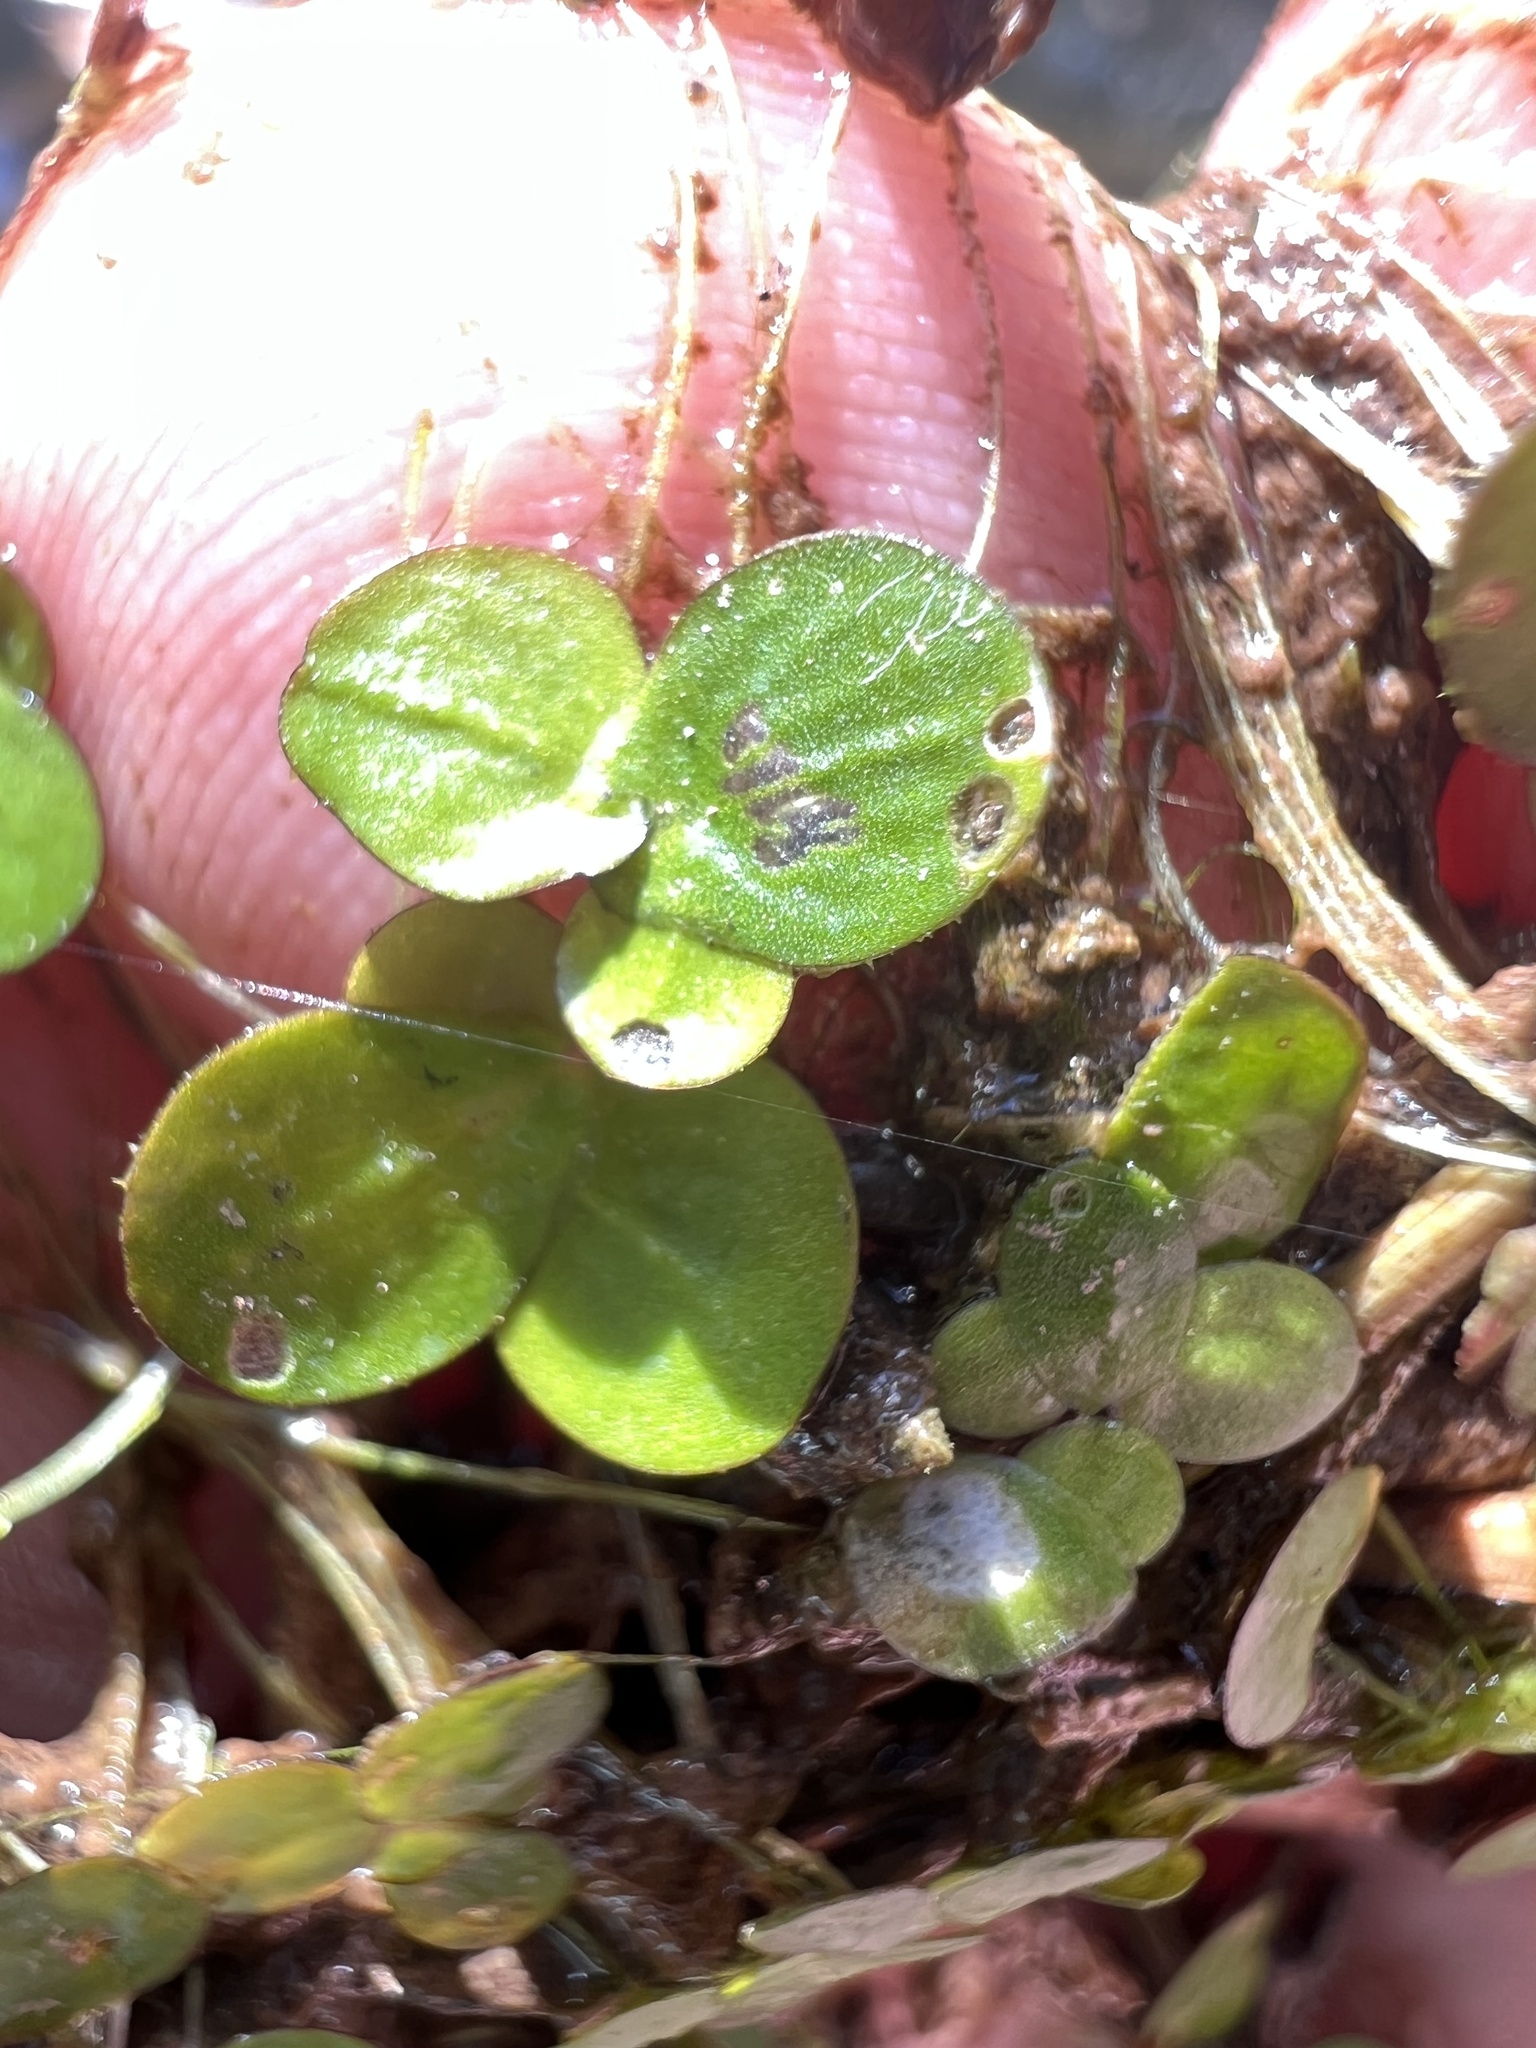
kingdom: Plantae
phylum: Tracheophyta
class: Liliopsida
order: Alismatales
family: Araceae
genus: Spirodela
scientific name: Spirodela polyrhiza
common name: Great duckweed
